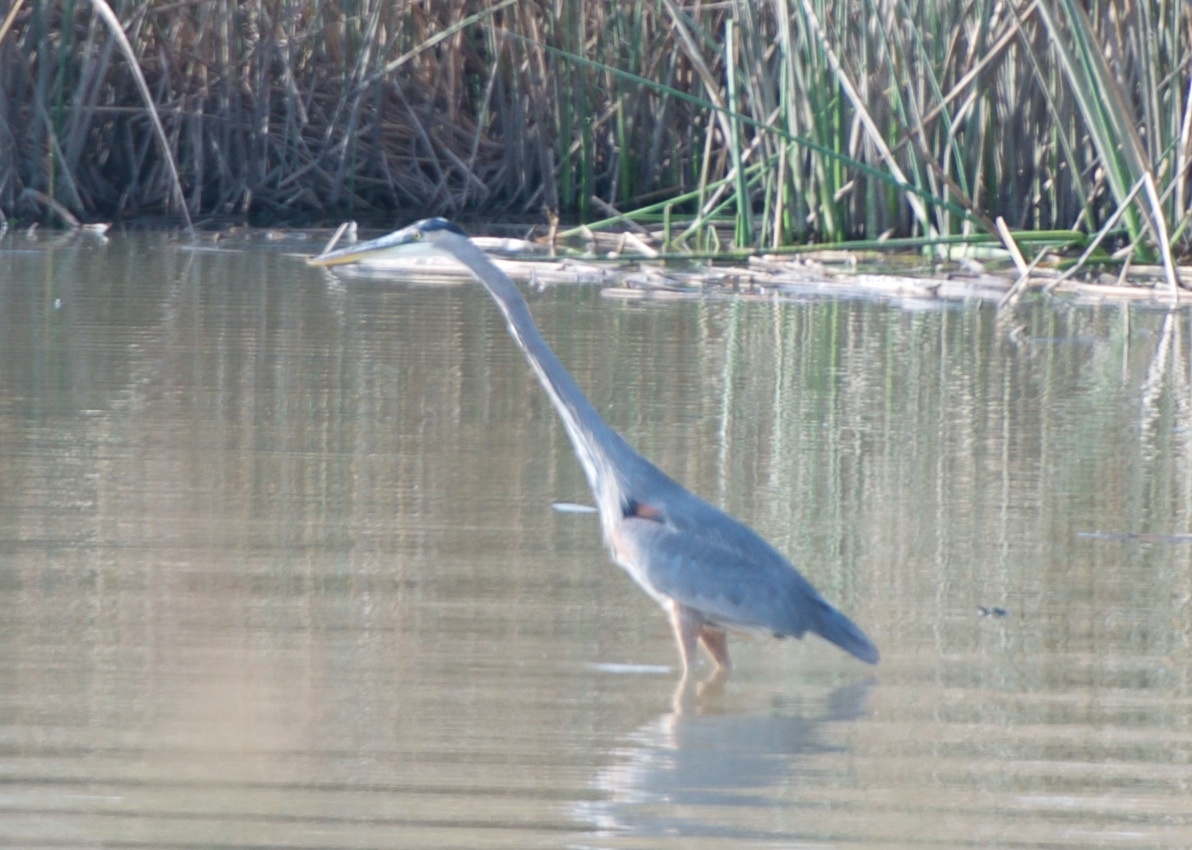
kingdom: Animalia
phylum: Chordata
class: Aves
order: Pelecaniformes
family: Ardeidae
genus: Ardea
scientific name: Ardea herodias
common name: Great blue heron
